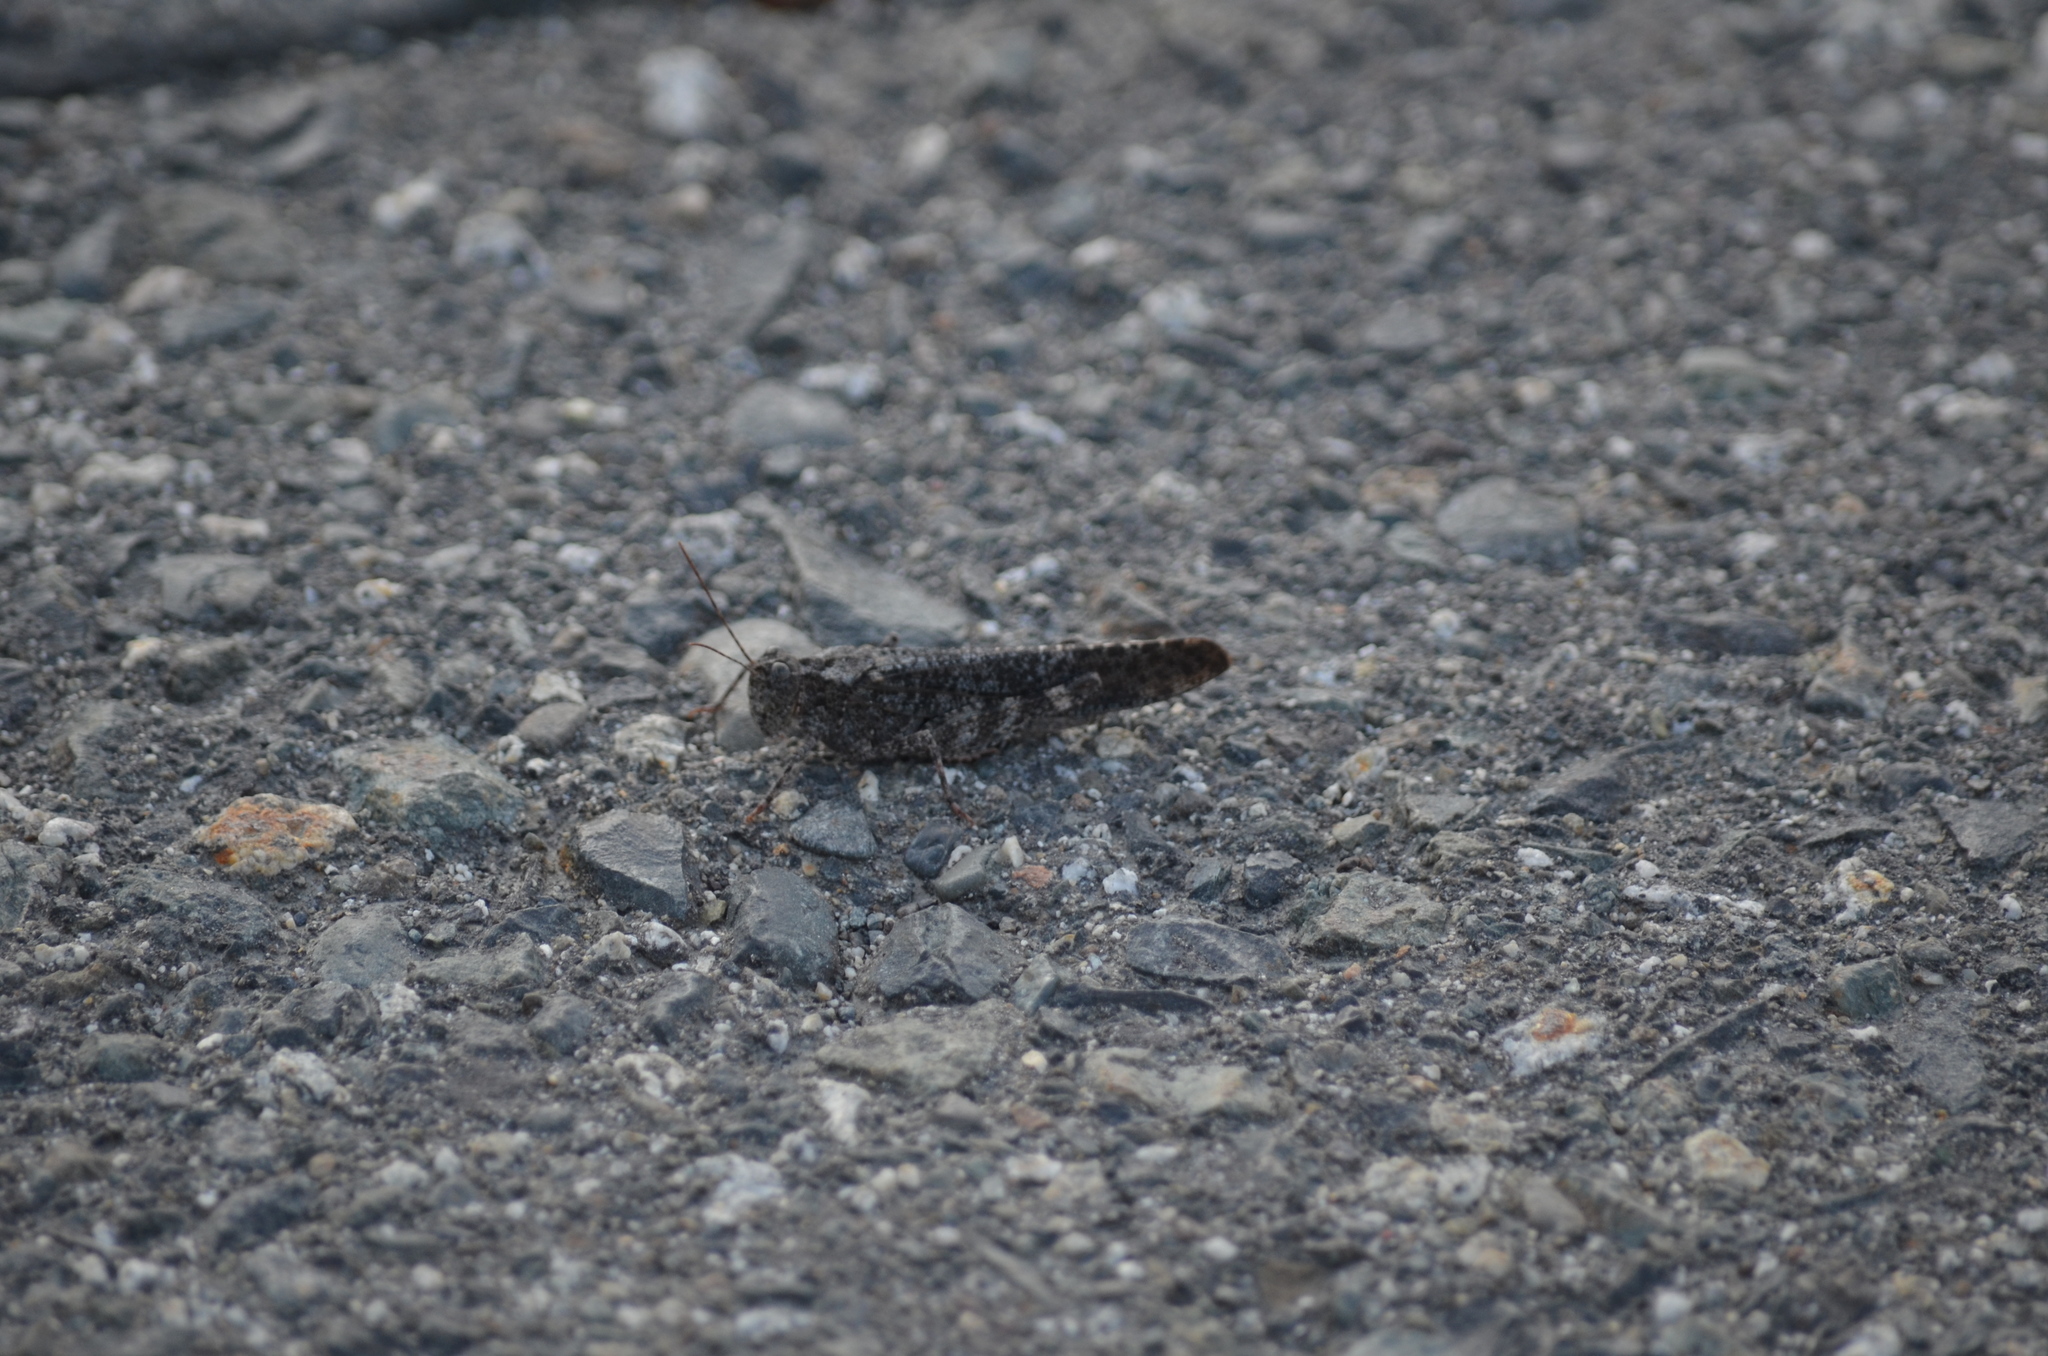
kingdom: Animalia
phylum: Arthropoda
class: Insecta
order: Orthoptera
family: Acrididae
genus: Trimerotropis
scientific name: Trimerotropis verruculata
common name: Crackling forest grasshopper
